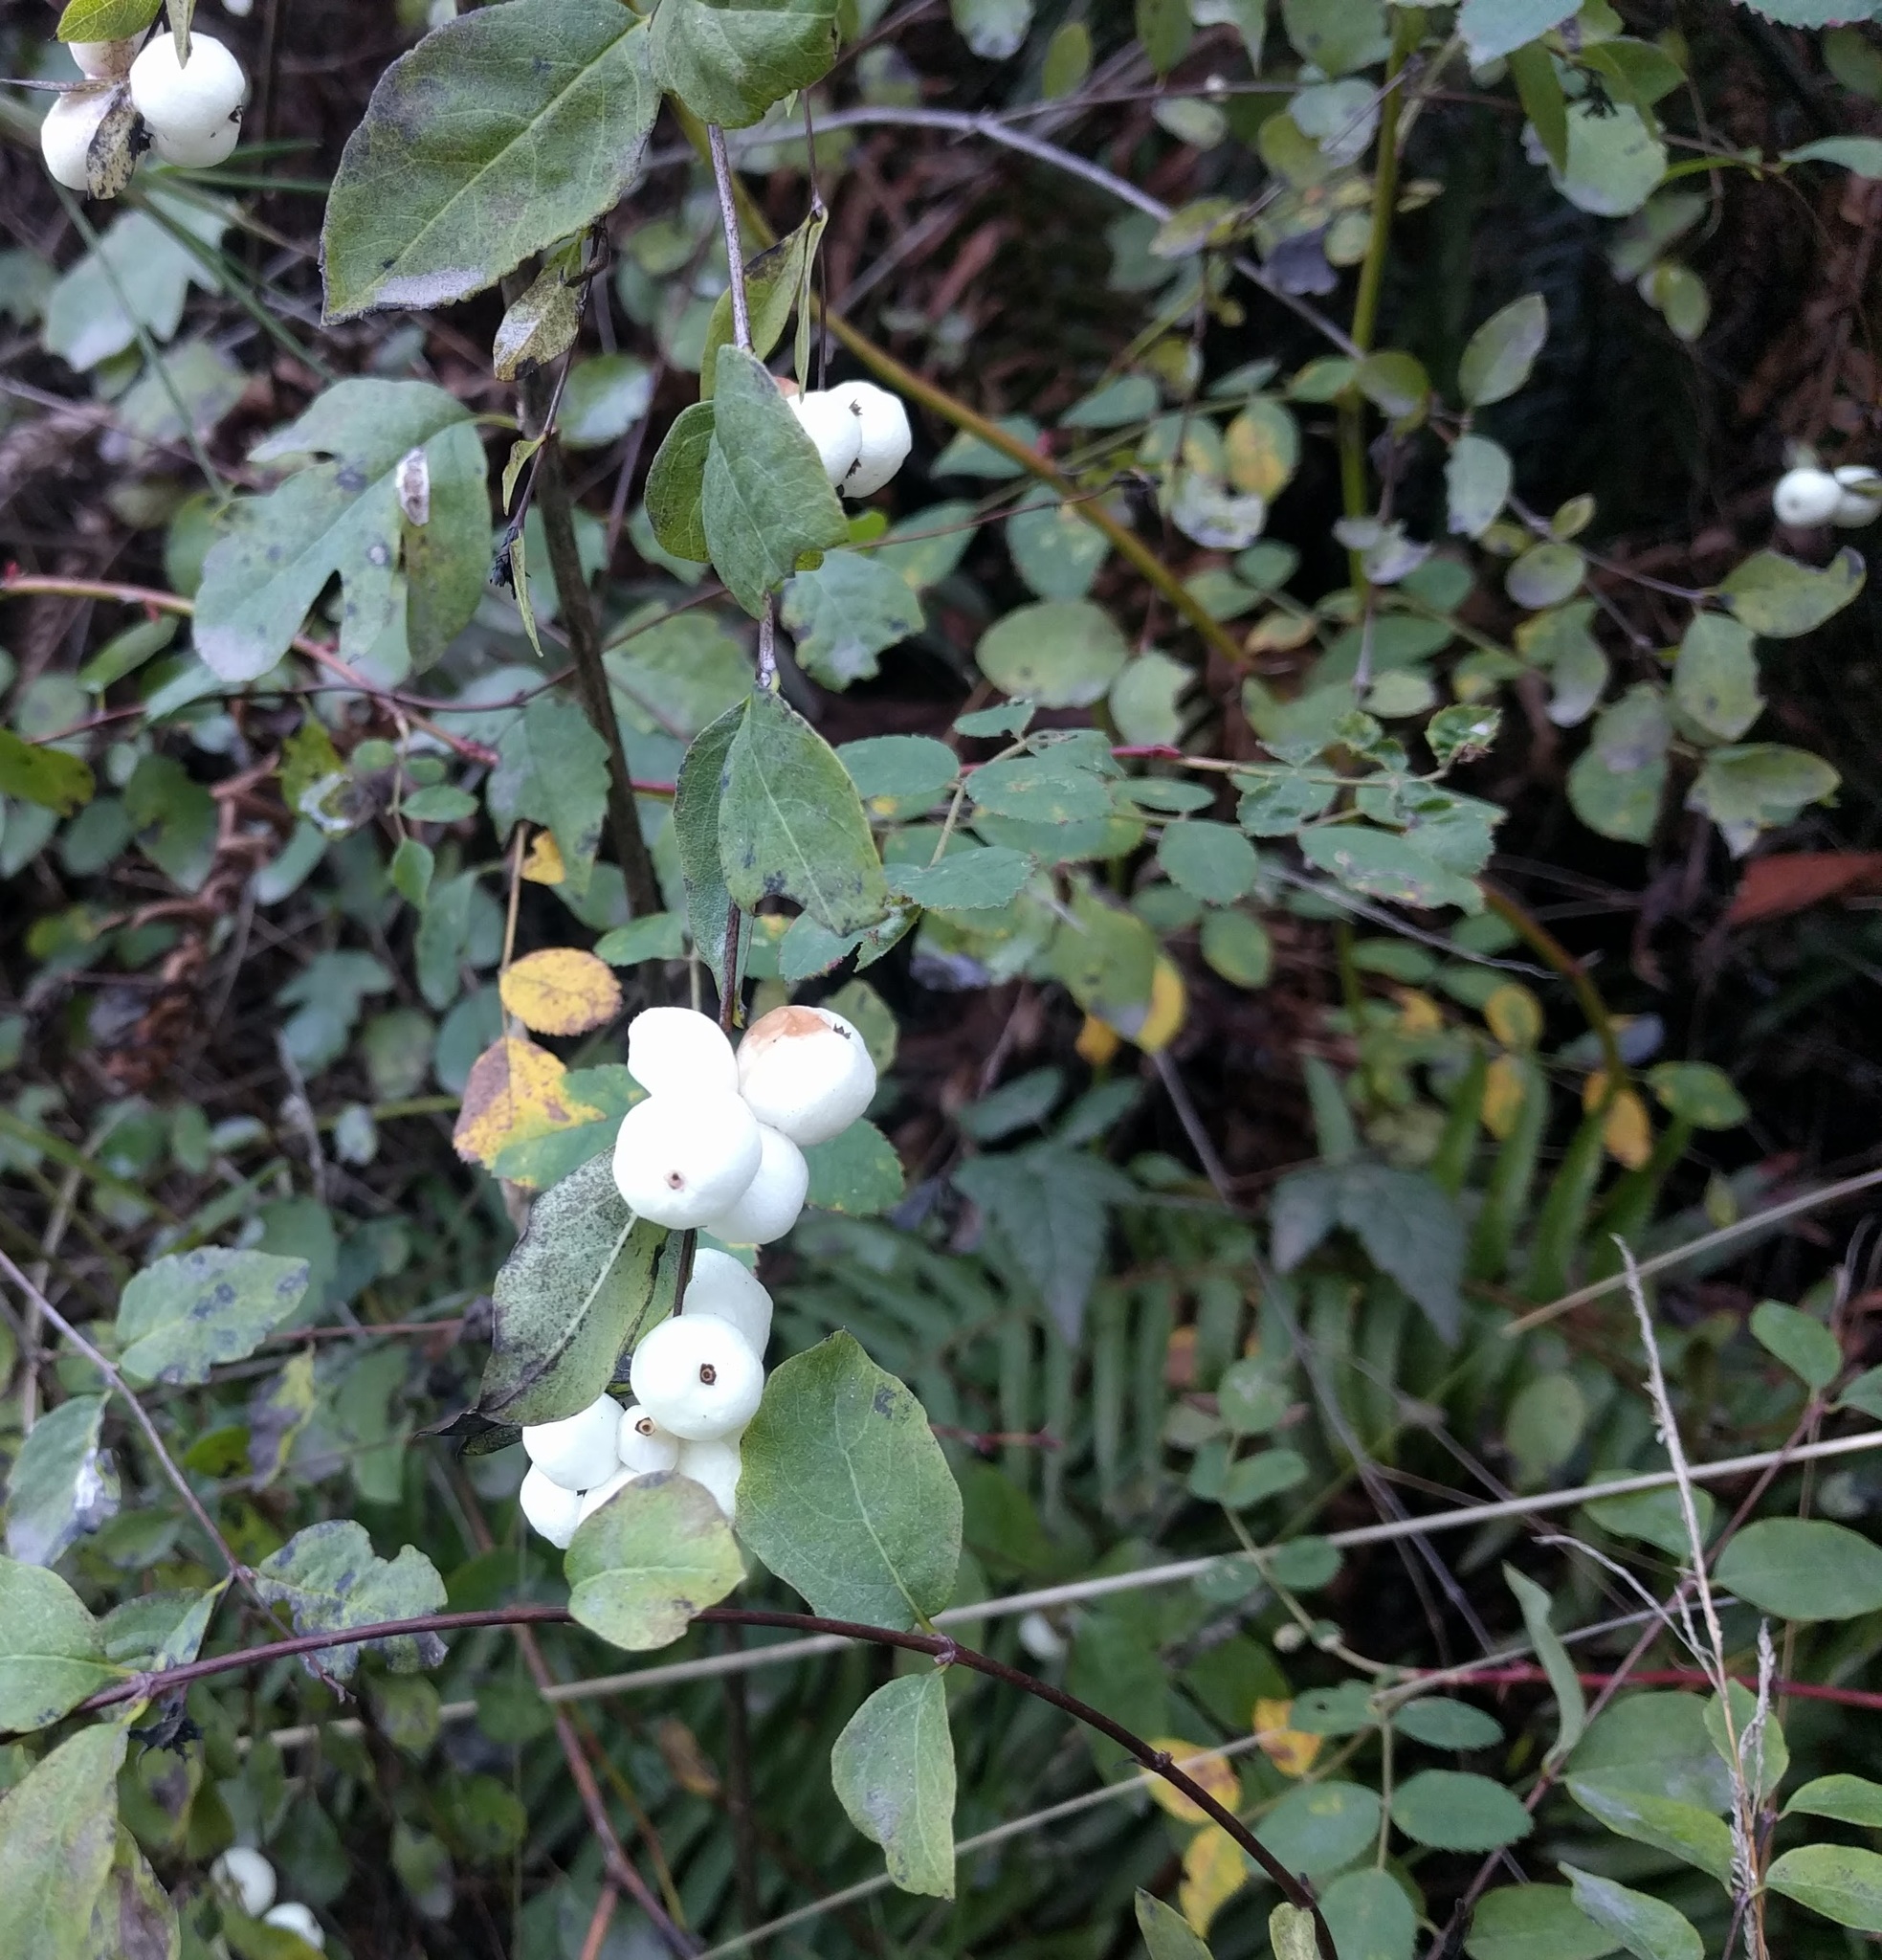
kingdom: Plantae
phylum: Tracheophyta
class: Magnoliopsida
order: Dipsacales
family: Caprifoliaceae
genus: Symphoricarpos
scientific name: Symphoricarpos albus
